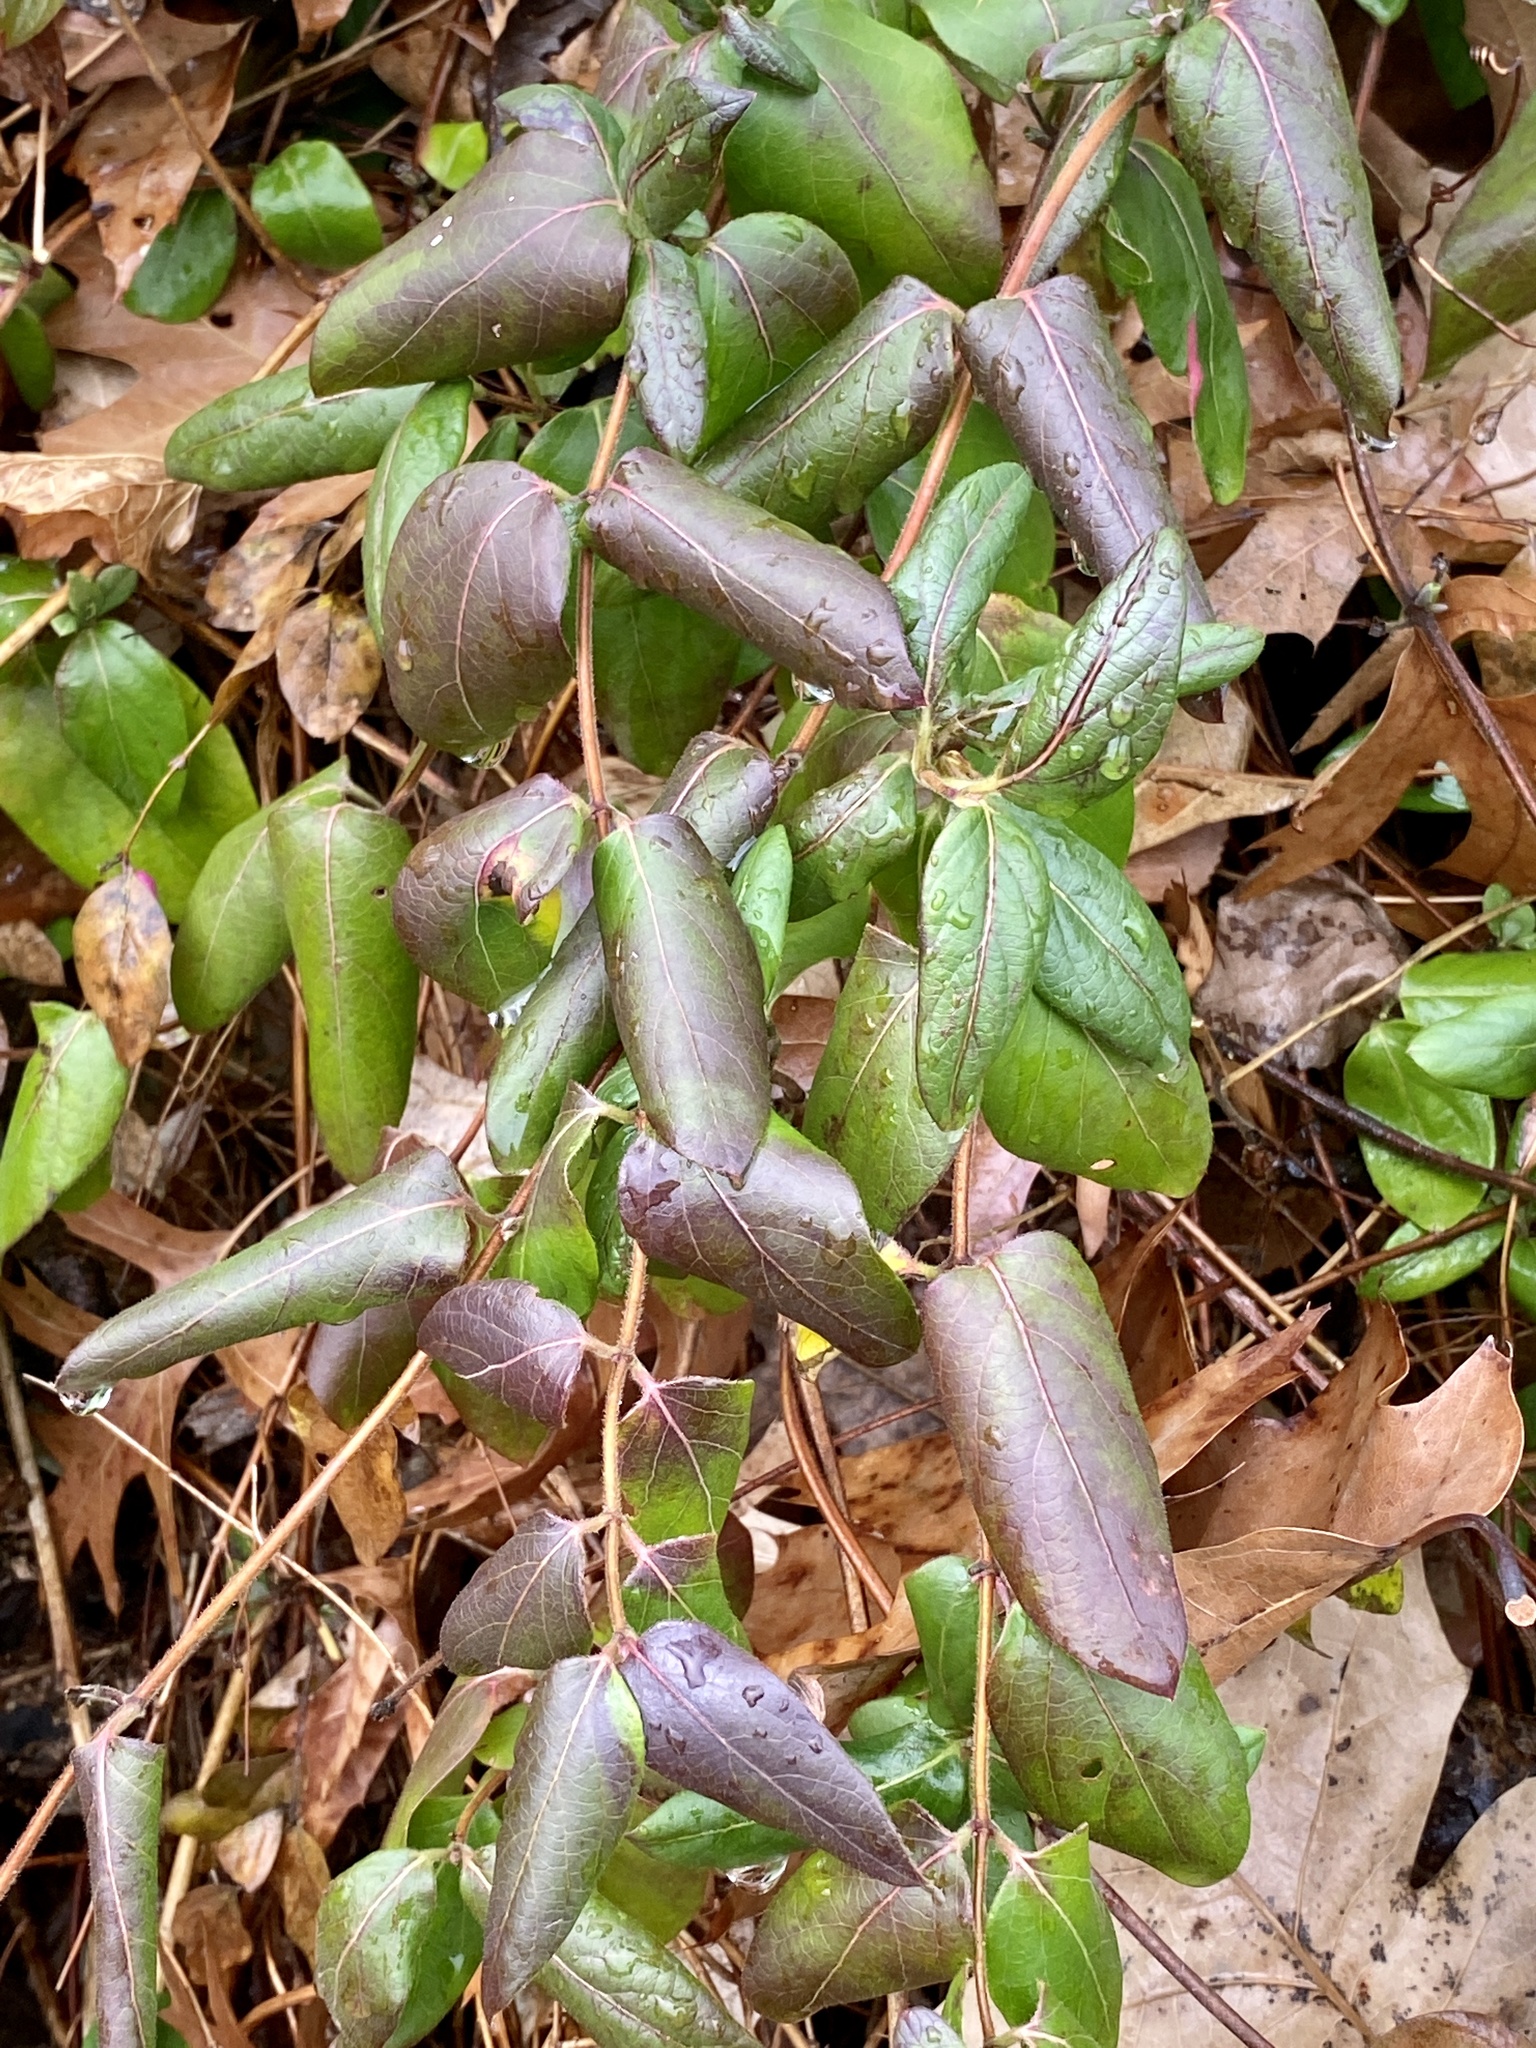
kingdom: Plantae
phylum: Tracheophyta
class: Magnoliopsida
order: Dipsacales
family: Caprifoliaceae
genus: Lonicera
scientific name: Lonicera japonica
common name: Japanese honeysuckle
